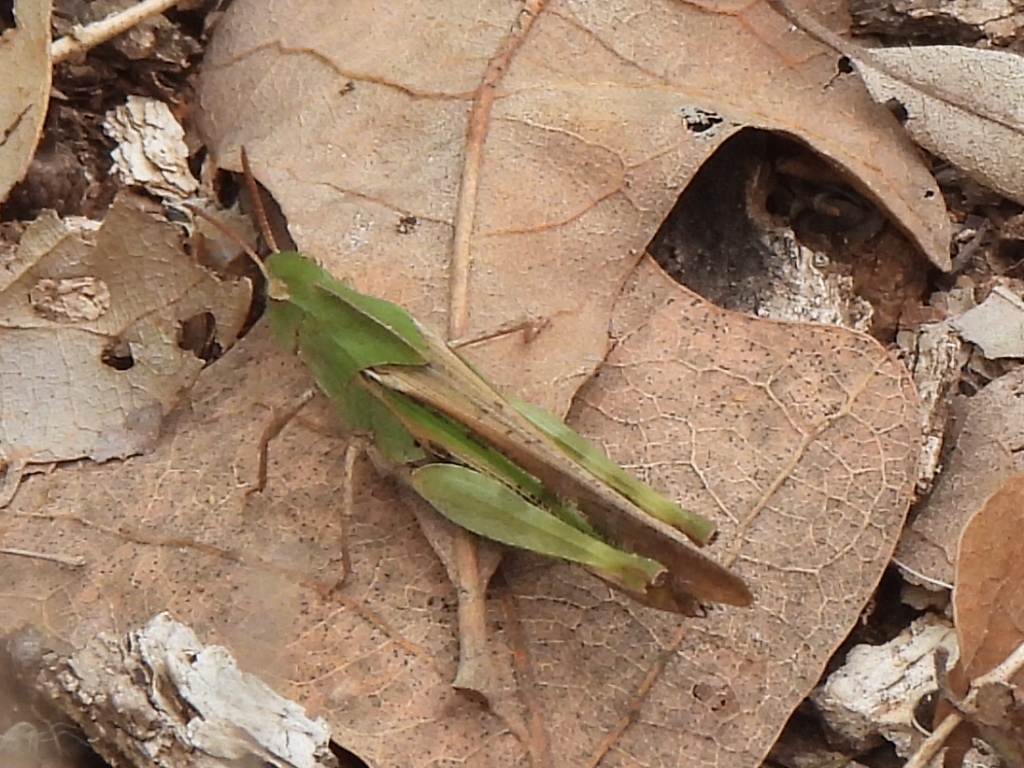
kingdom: Animalia
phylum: Arthropoda
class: Insecta
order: Orthoptera
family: Acrididae
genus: Chortophaga
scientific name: Chortophaga viridifasciata
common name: Green-striped grasshopper
